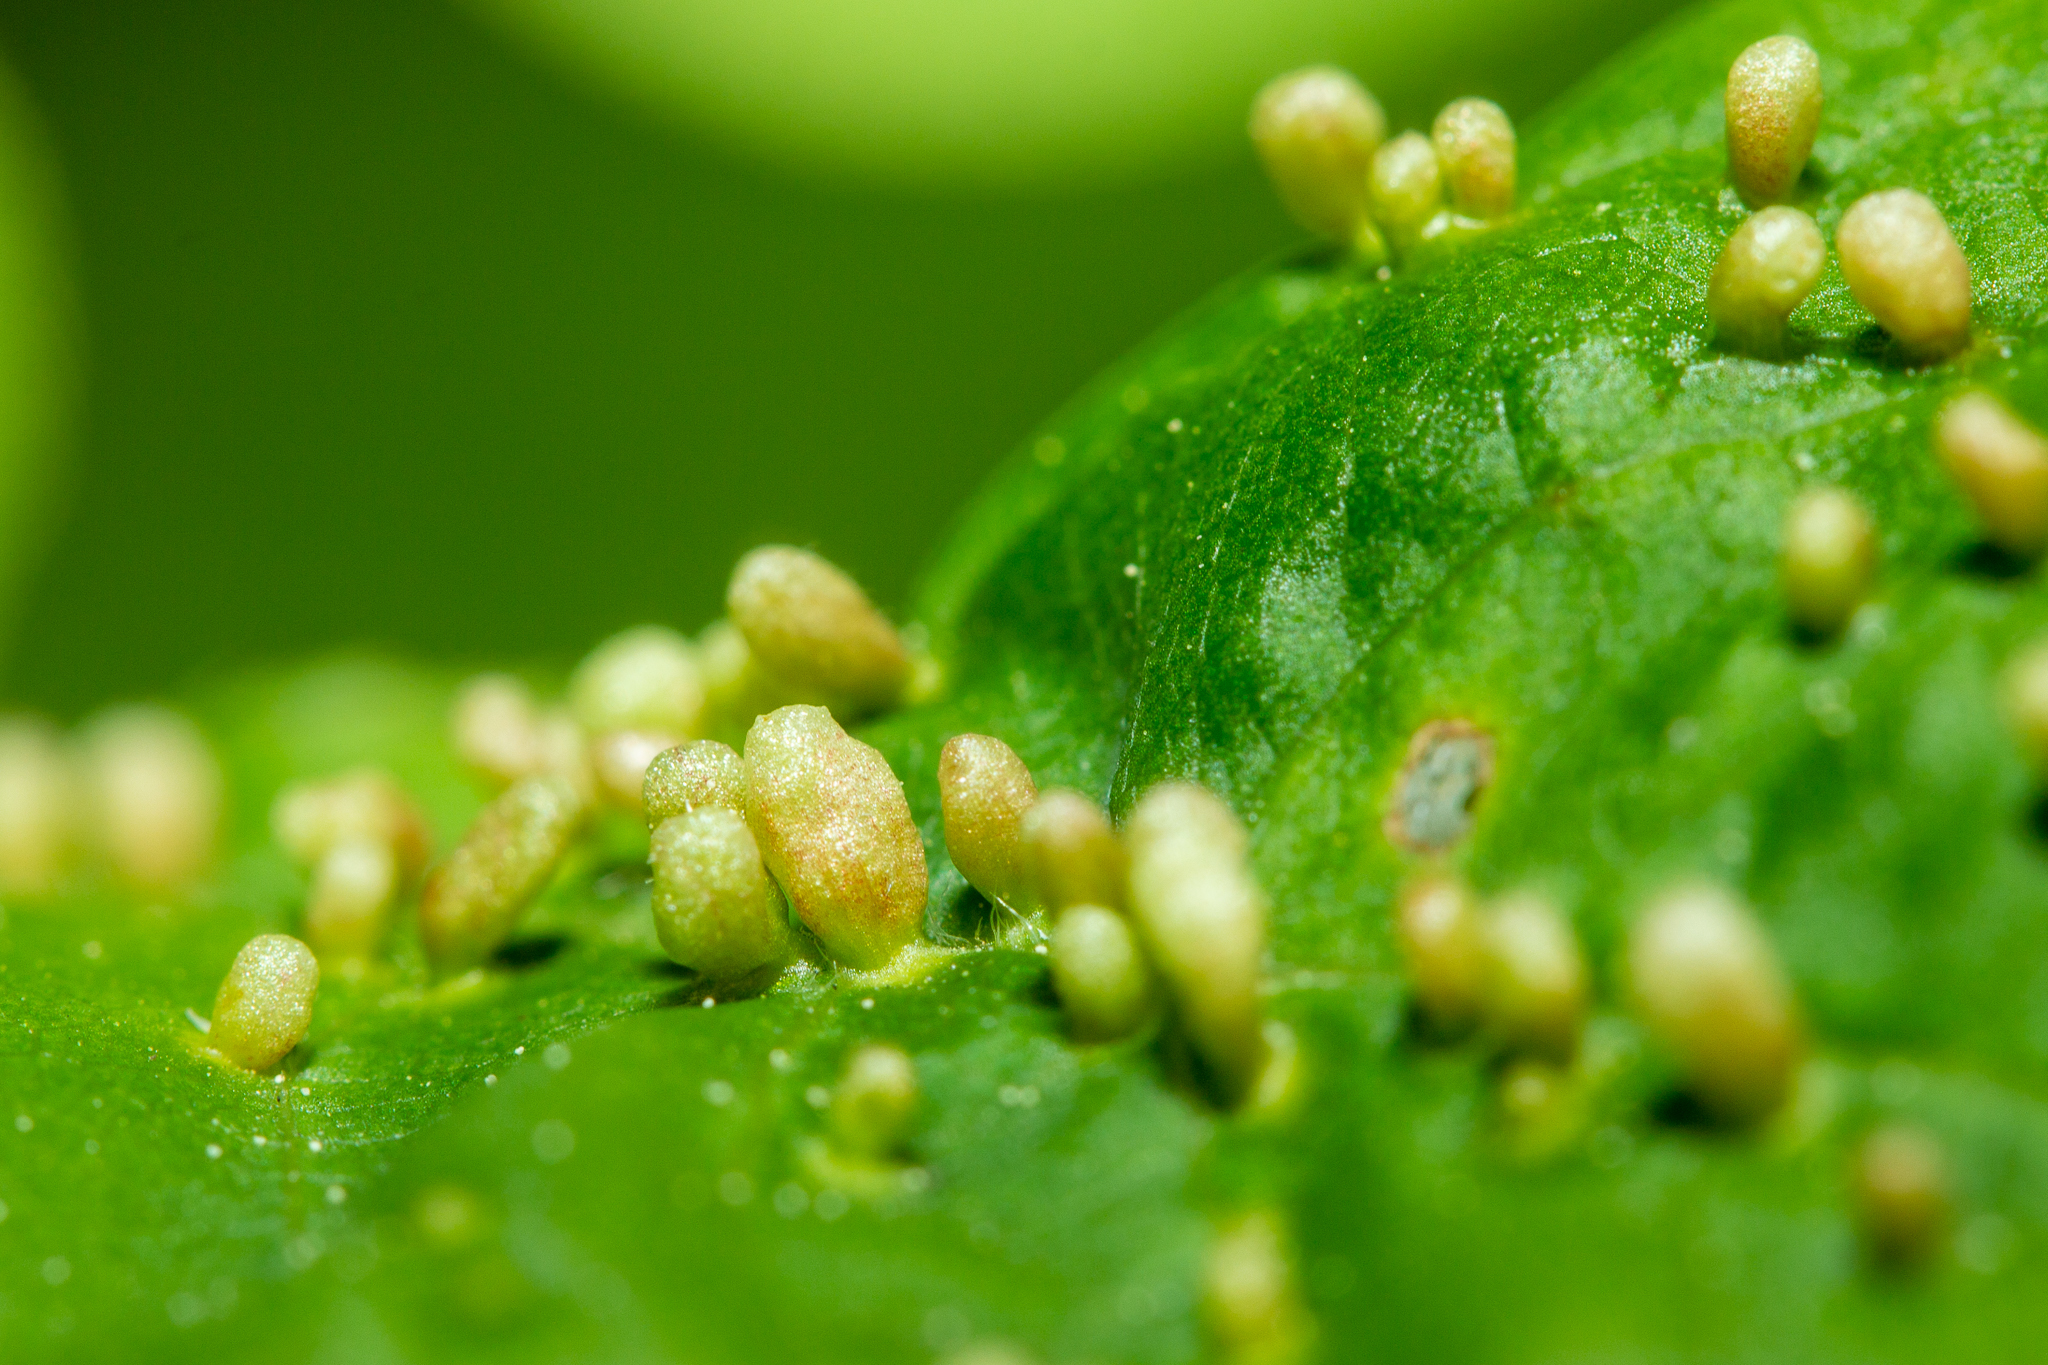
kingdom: Animalia
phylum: Arthropoda
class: Arachnida
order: Trombidiformes
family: Eriophyidae
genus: Eriophyes
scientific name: Eriophyes emarginatae
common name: Plum leaf gall mite
